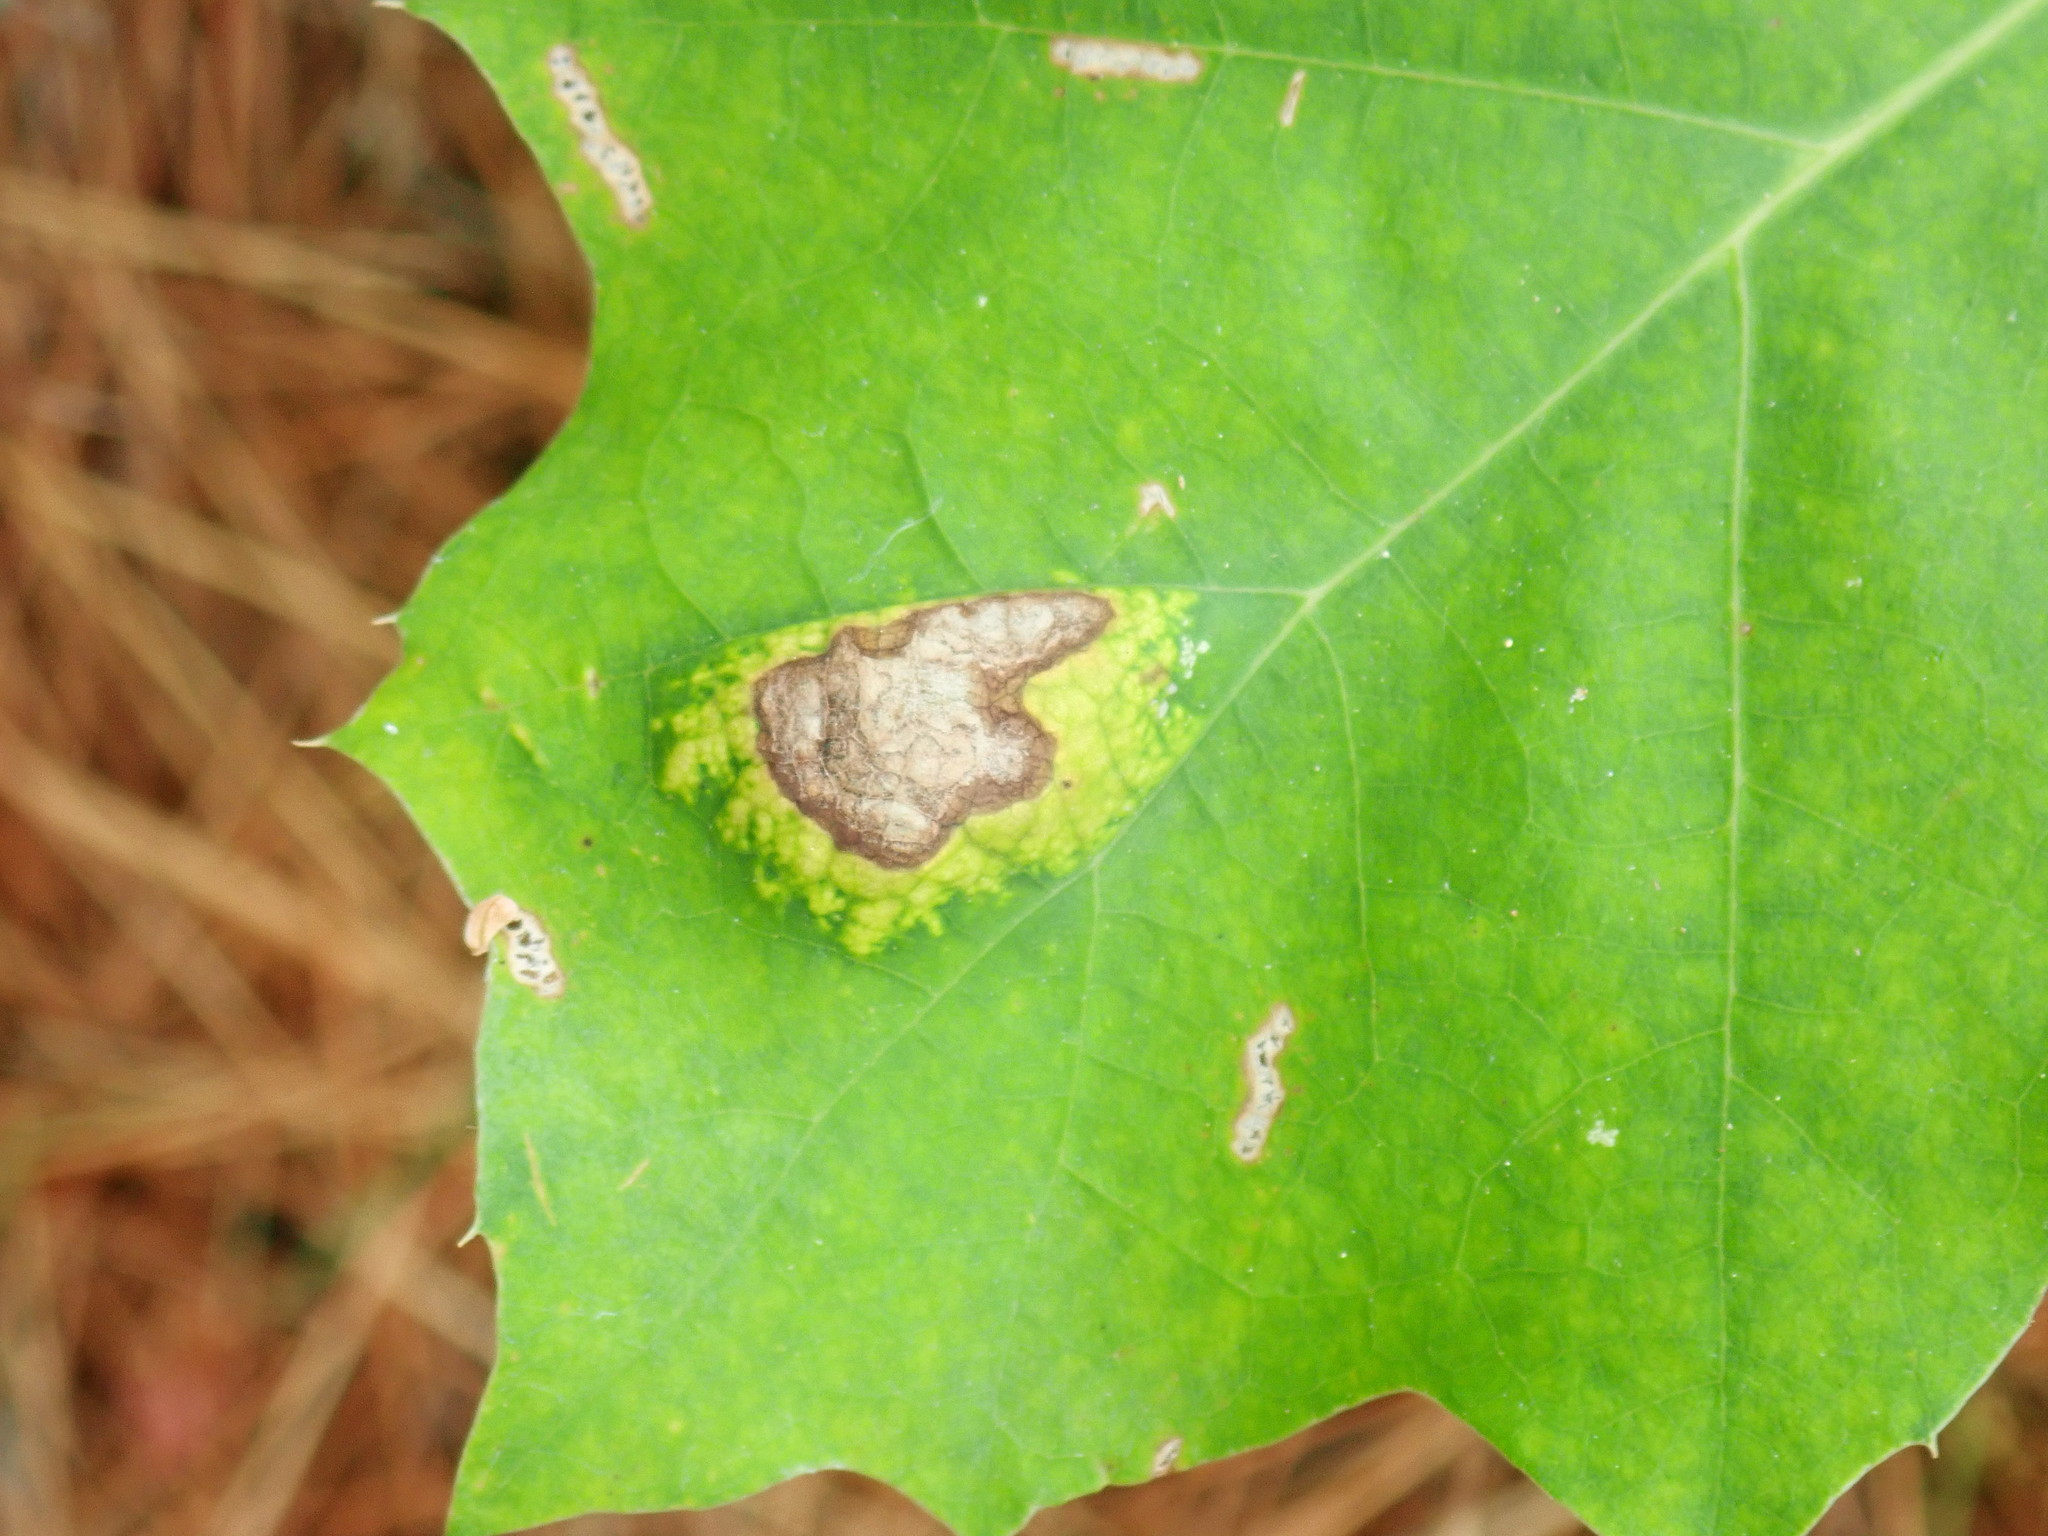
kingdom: Fungi
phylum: Ascomycota
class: Taphrinomycetes
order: Taphrinales
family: Taphrinaceae
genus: Taphrina
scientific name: Taphrina caerulescens
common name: Oak leaf blister
